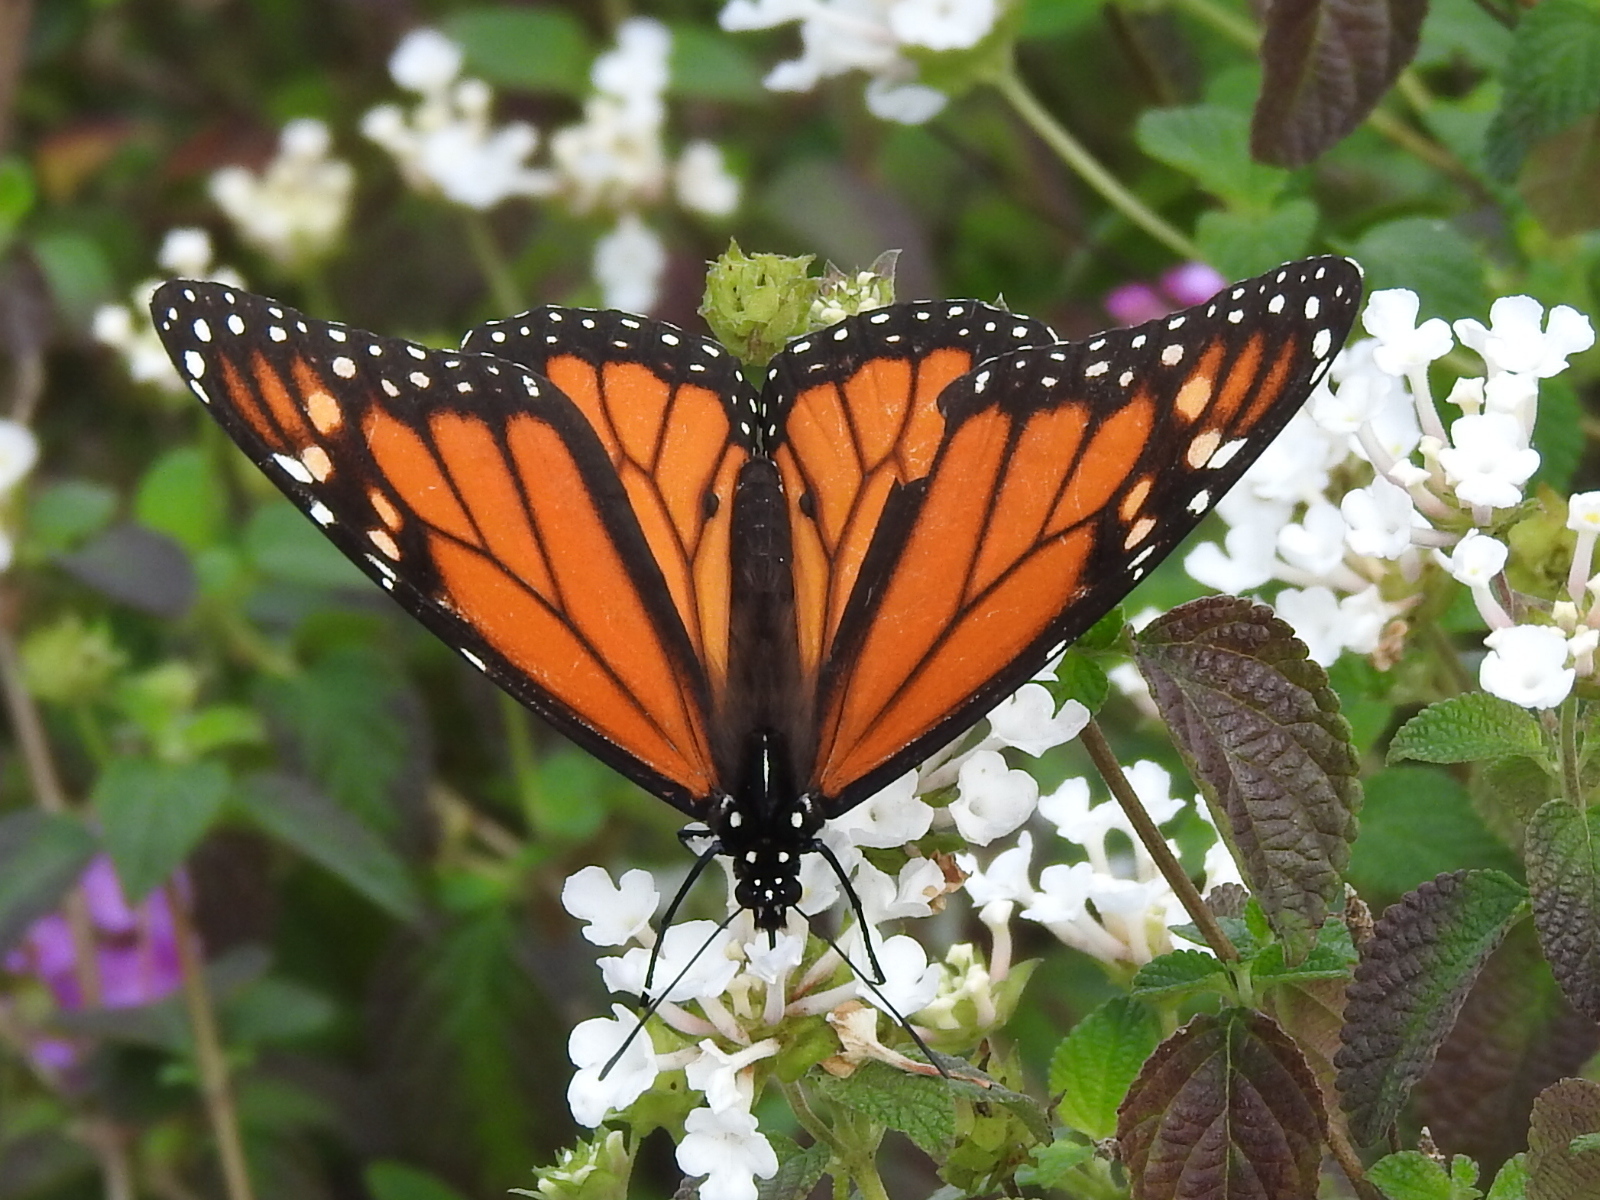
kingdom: Animalia
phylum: Arthropoda
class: Insecta
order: Lepidoptera
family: Nymphalidae
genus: Danaus
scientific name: Danaus plexippus
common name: Monarch
